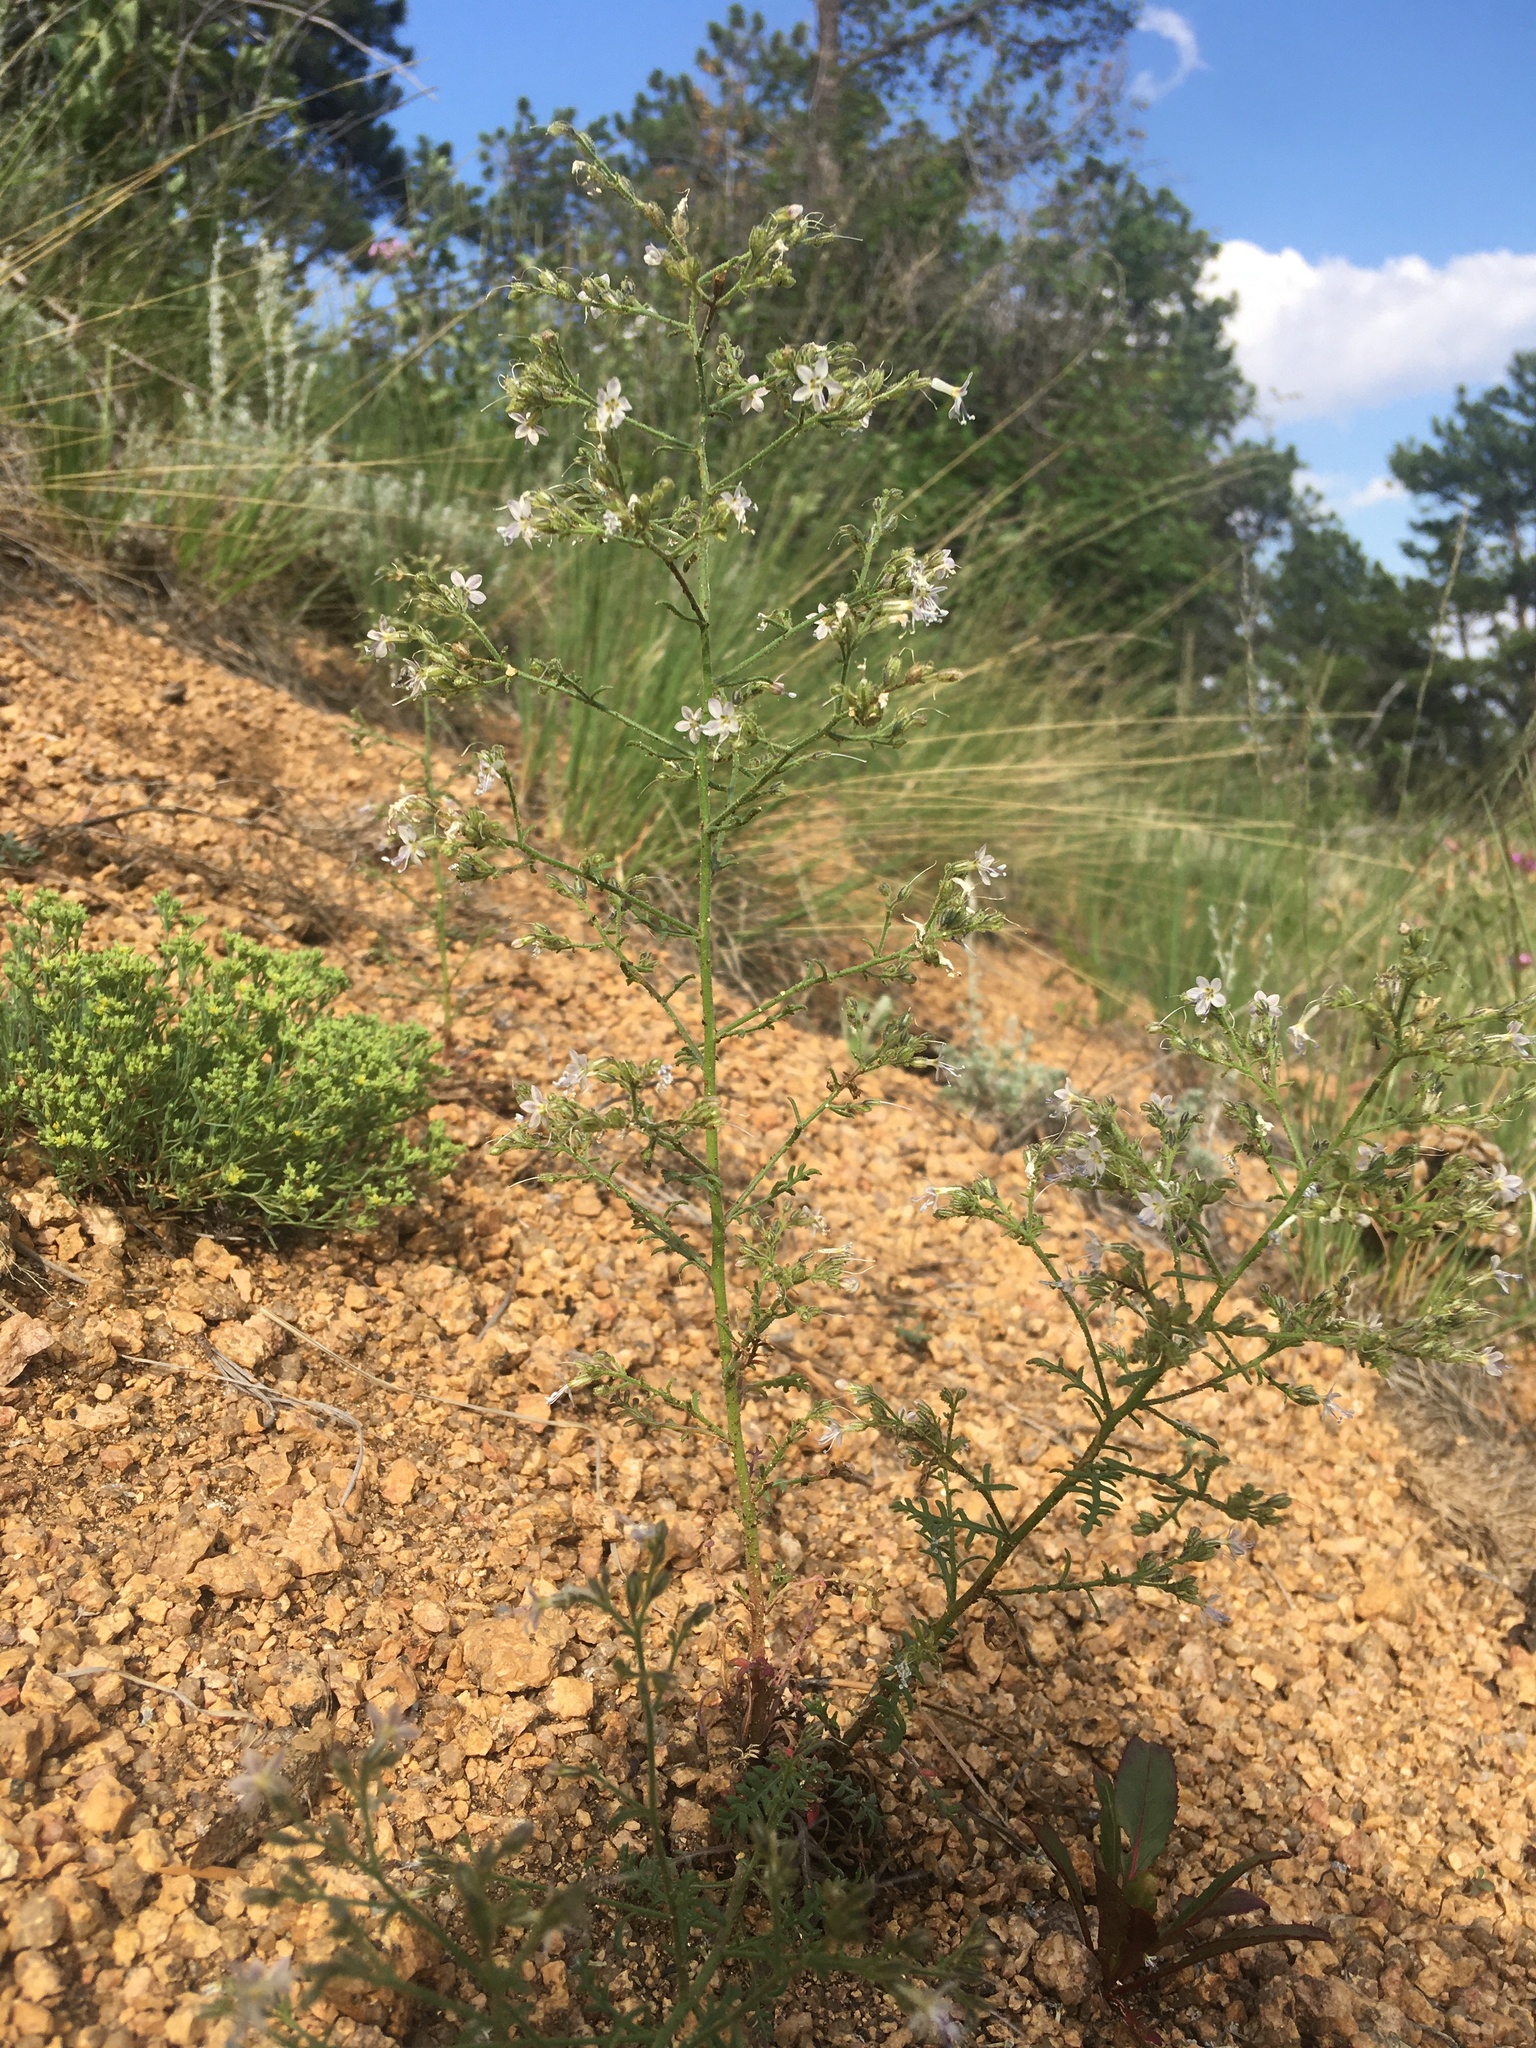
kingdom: Plantae
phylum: Tracheophyta
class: Magnoliopsida
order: Ericales
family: Polemoniaceae
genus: Aliciella
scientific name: Aliciella pinnatifida
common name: Sticky gilia
